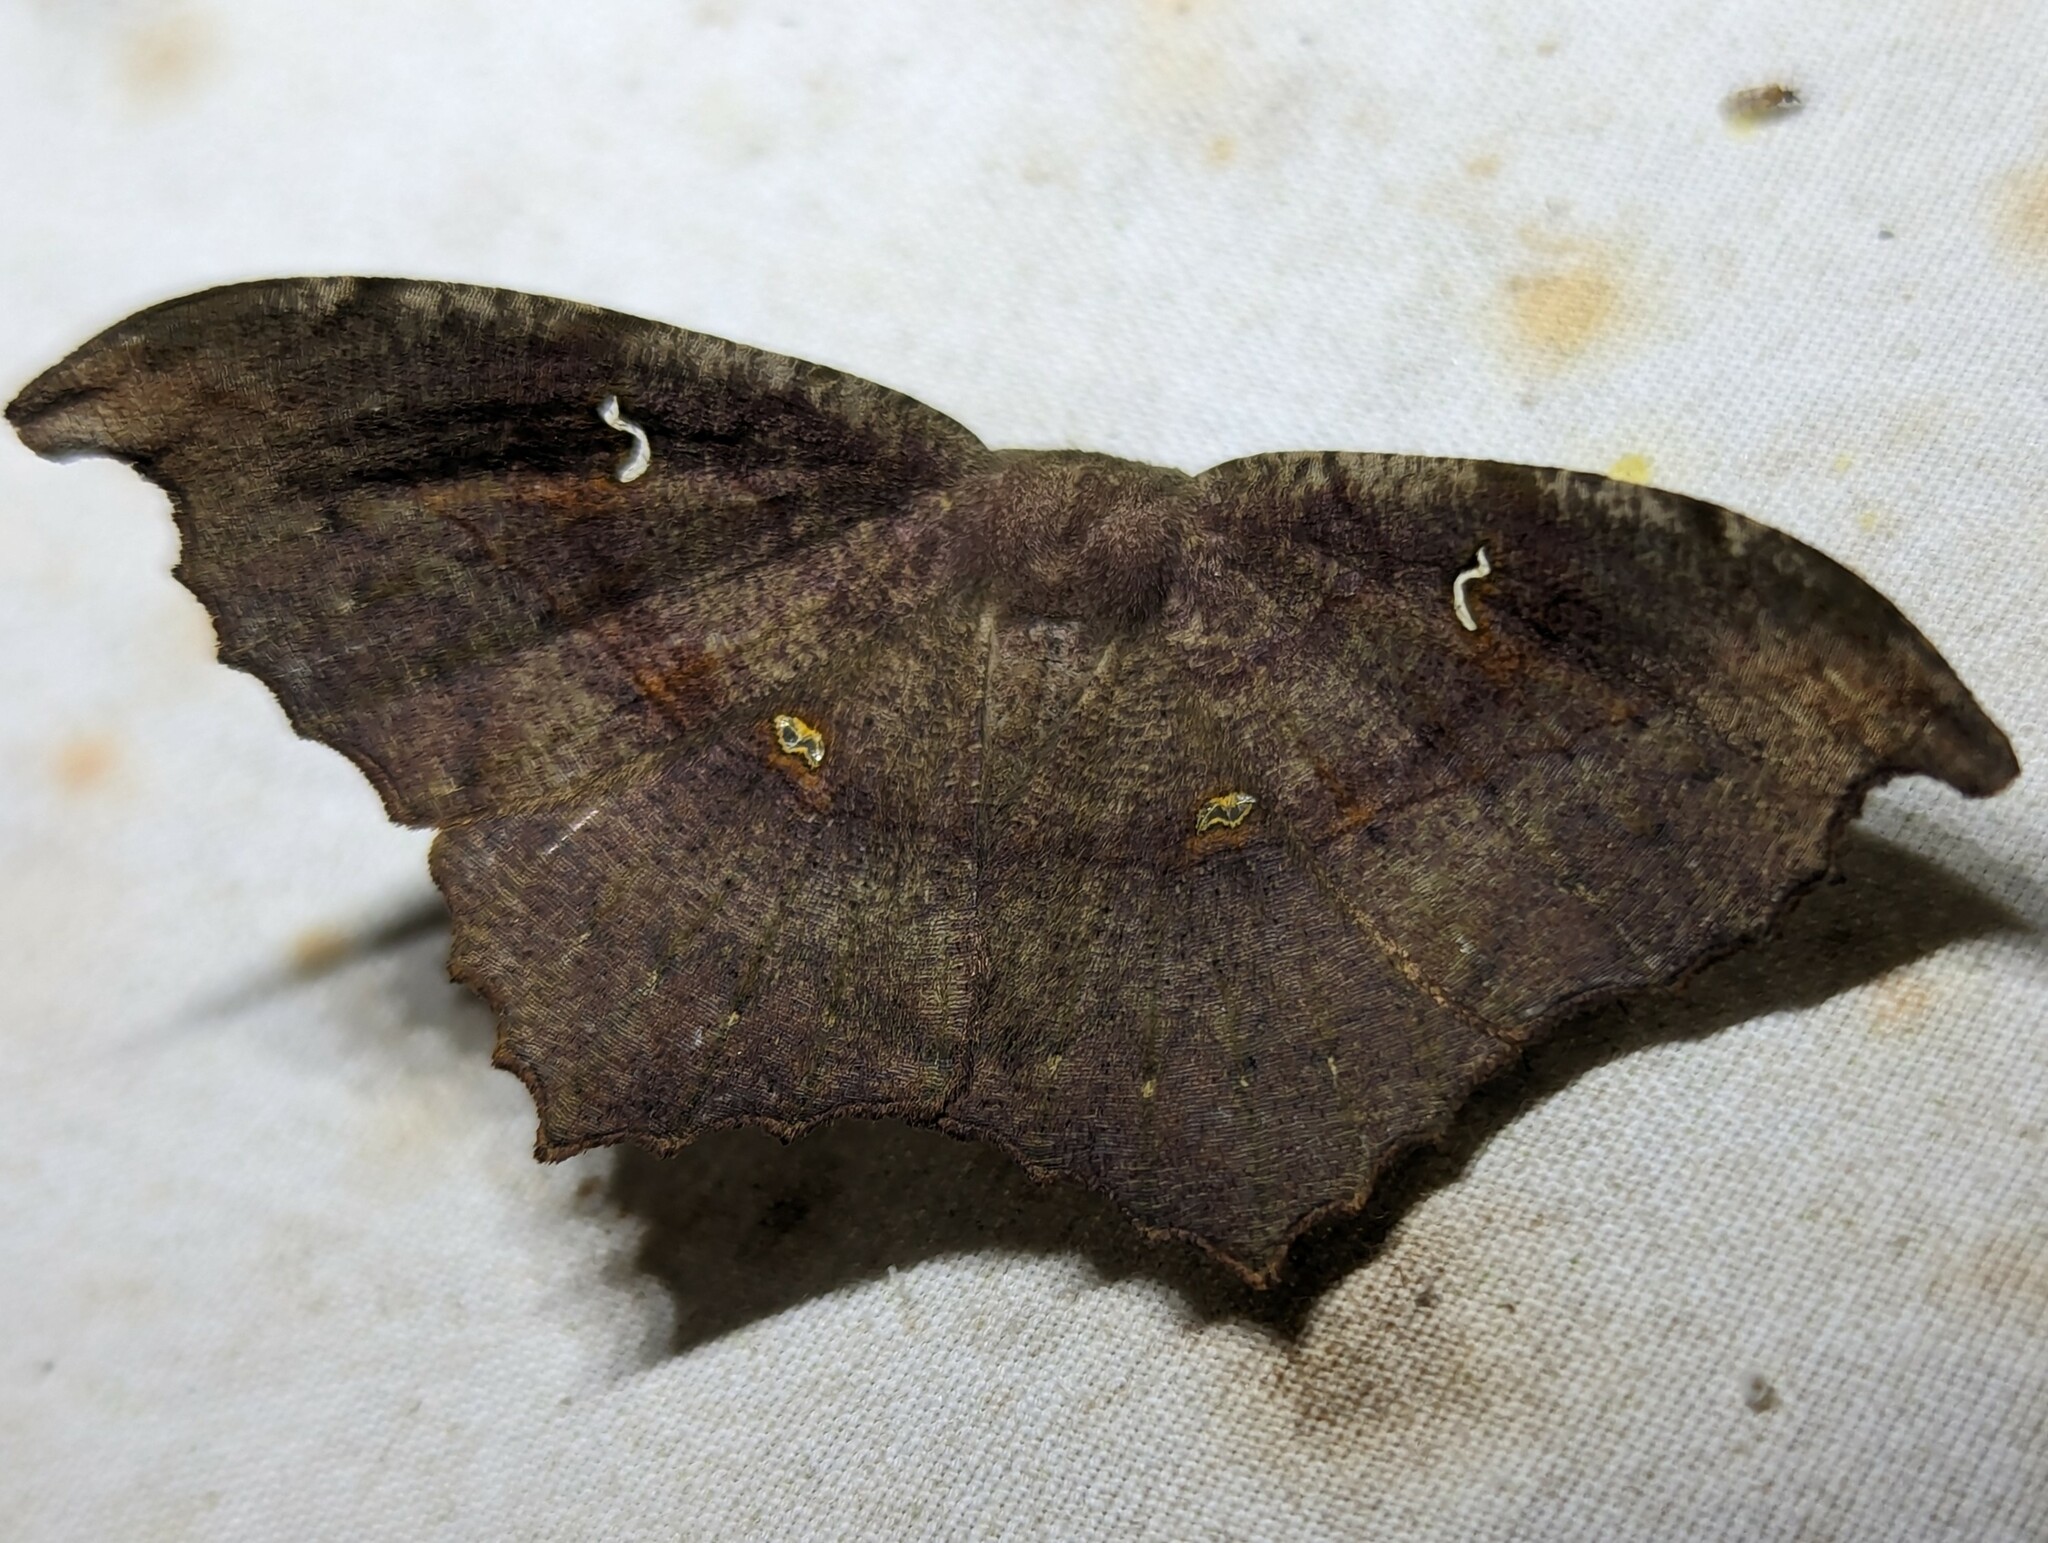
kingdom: Animalia
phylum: Arthropoda
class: Insecta
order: Lepidoptera
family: Geometridae
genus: Oxydia
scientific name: Oxydia optima
